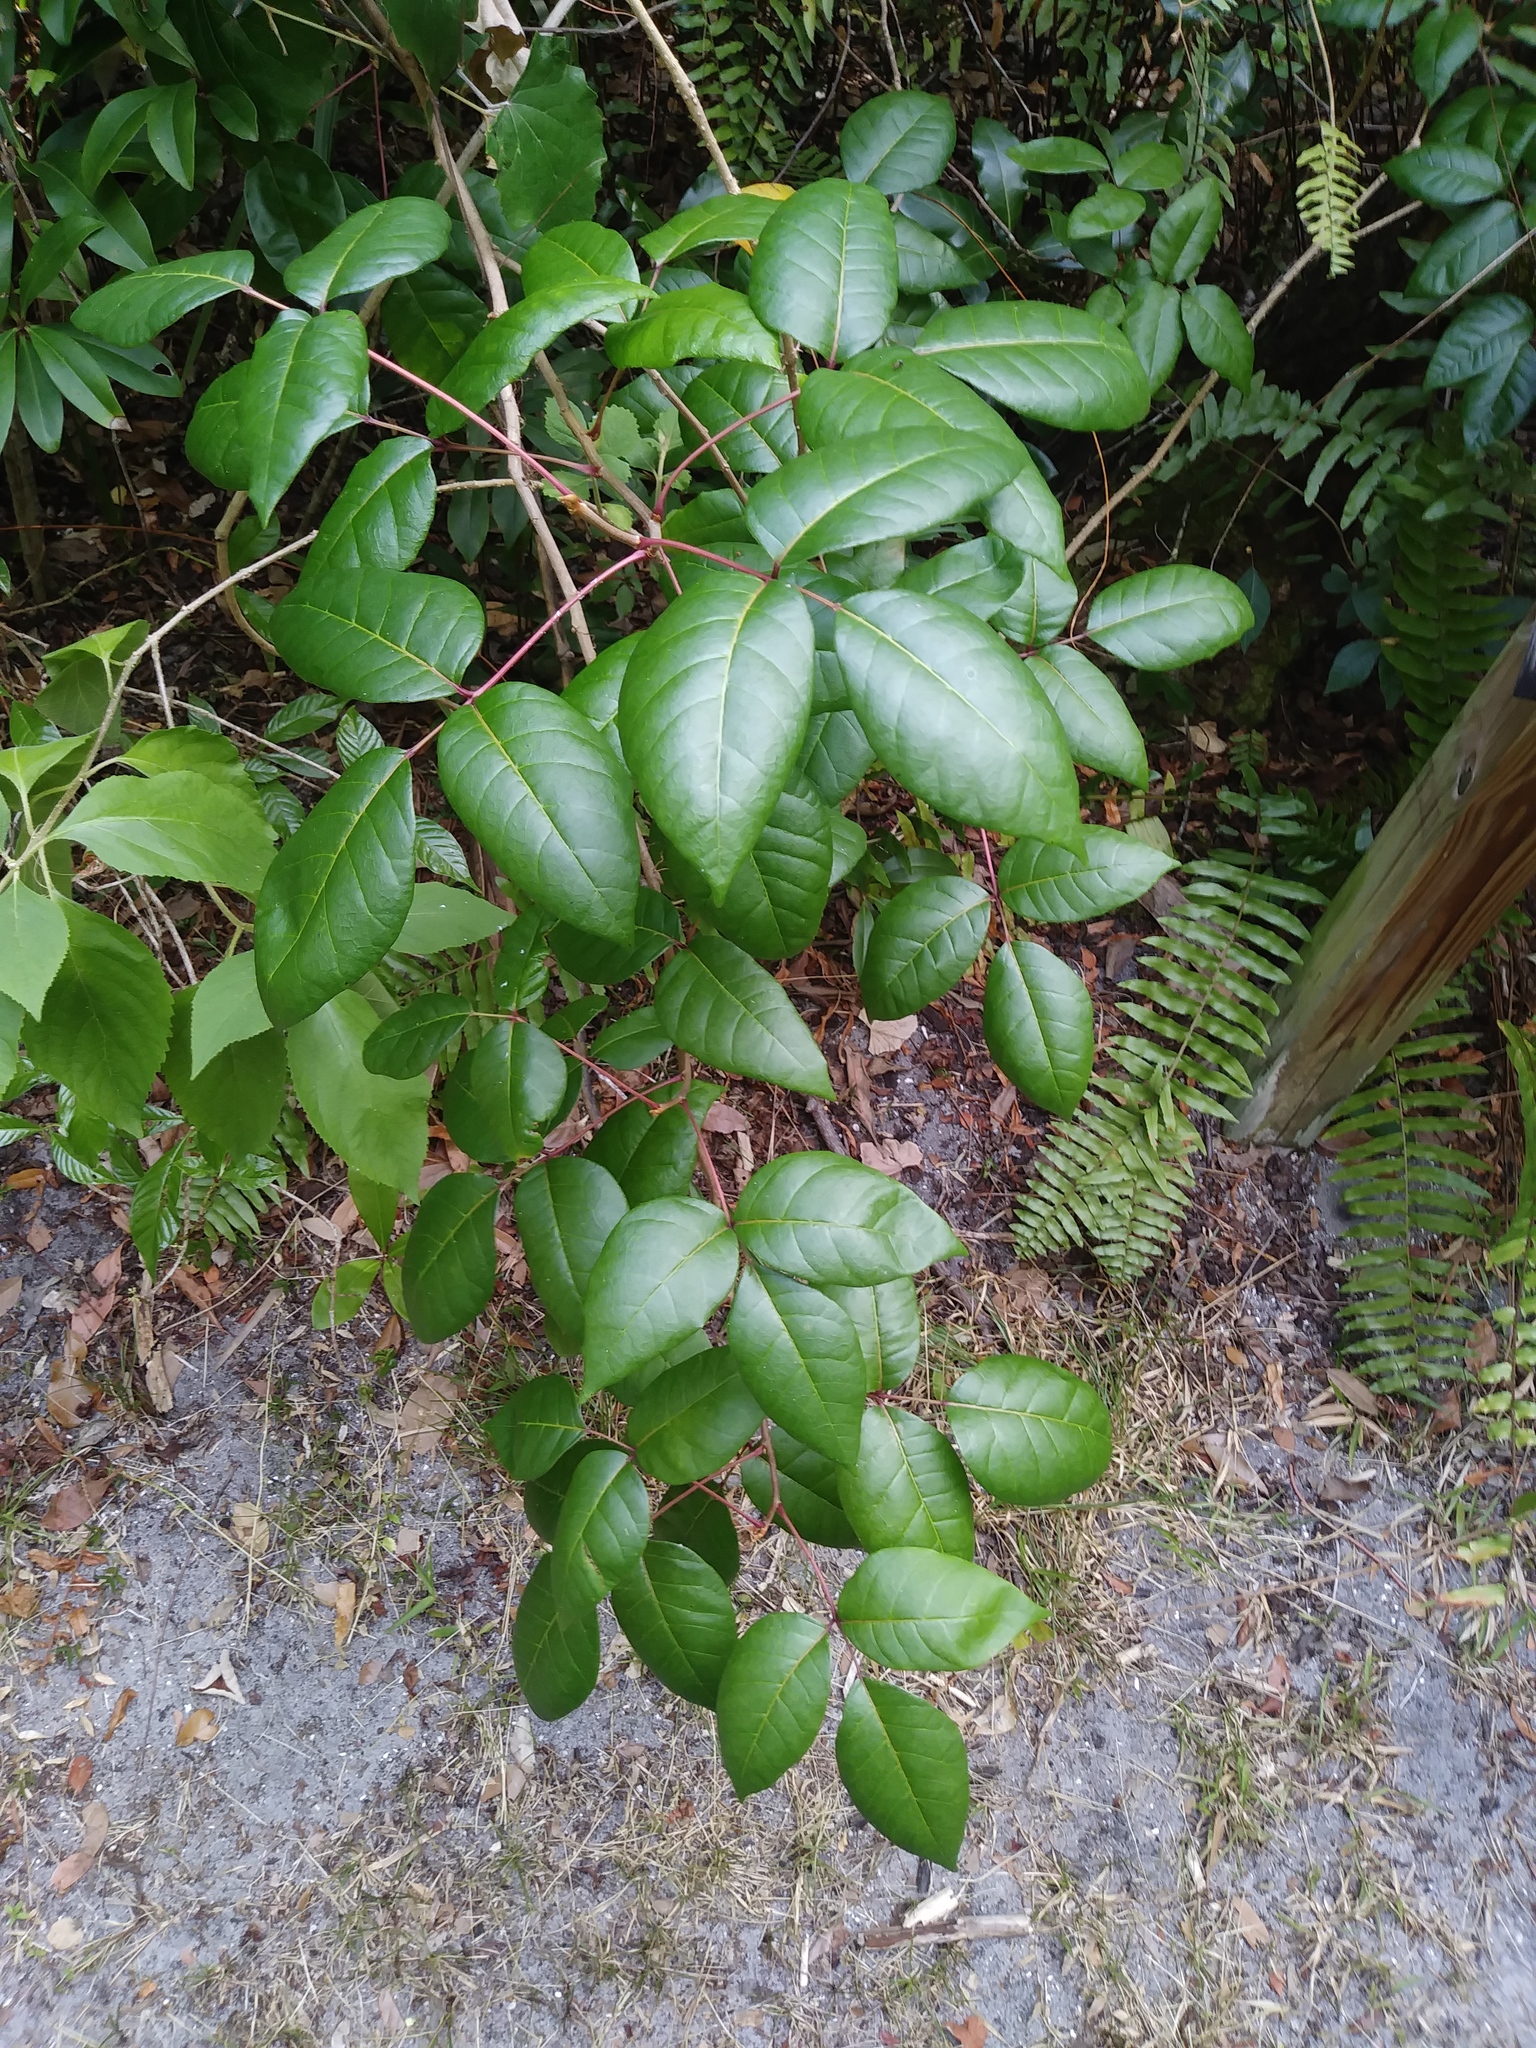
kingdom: Plantae
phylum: Tracheophyta
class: Magnoliopsida
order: Sapindales
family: Anacardiaceae
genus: Toxicodendron
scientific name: Toxicodendron radicans
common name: Poison ivy
